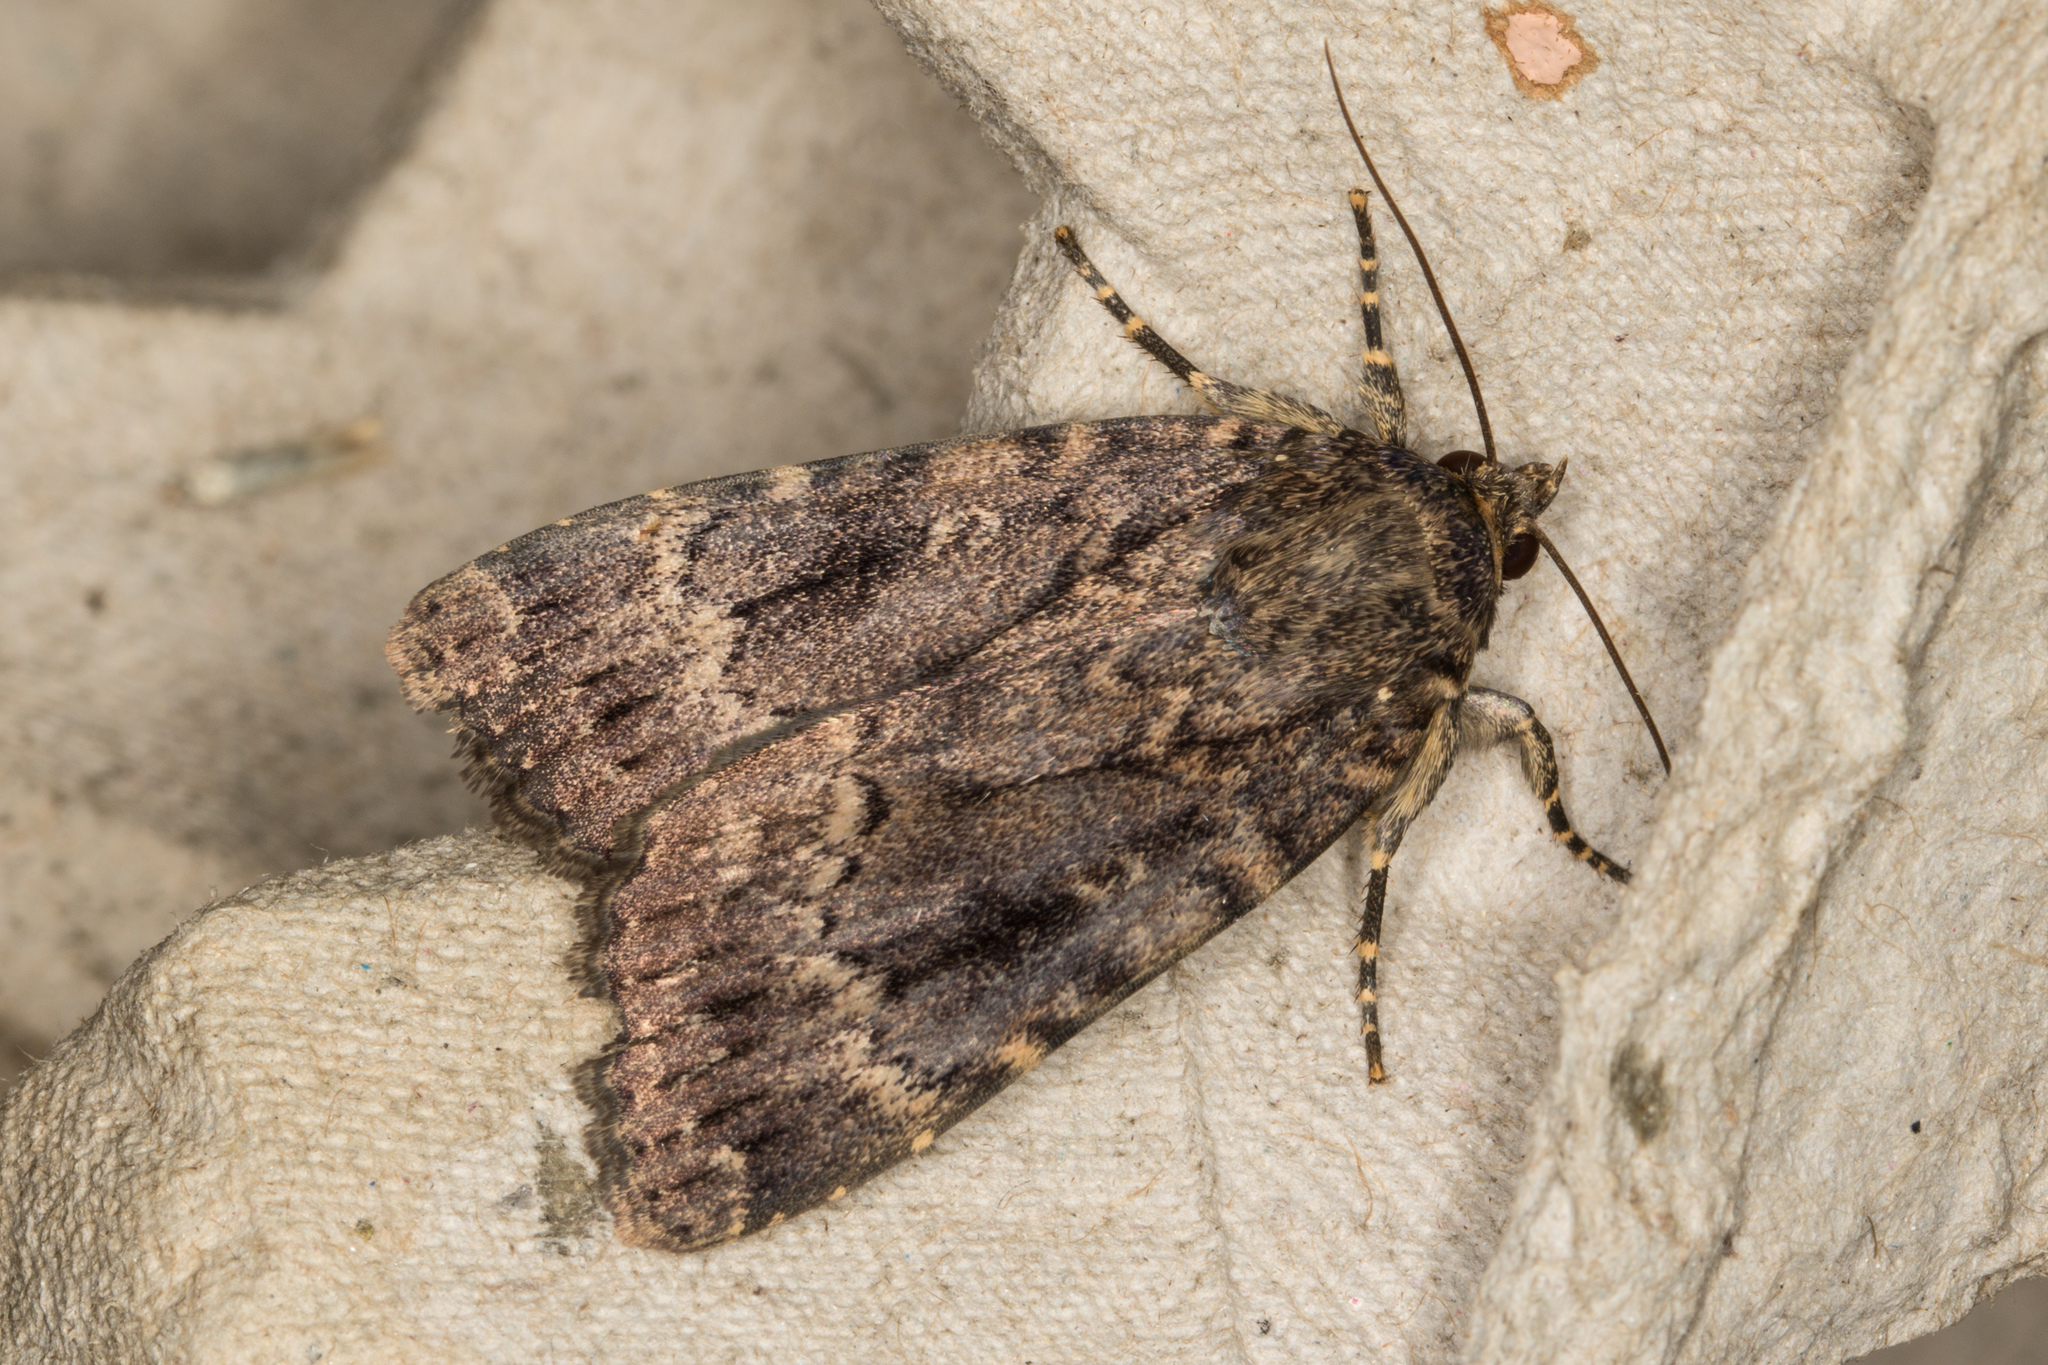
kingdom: Animalia
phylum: Arthropoda
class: Insecta
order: Lepidoptera
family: Noctuidae
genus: Amphipyra
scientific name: Amphipyra berbera
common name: Svensson's copper underwing
